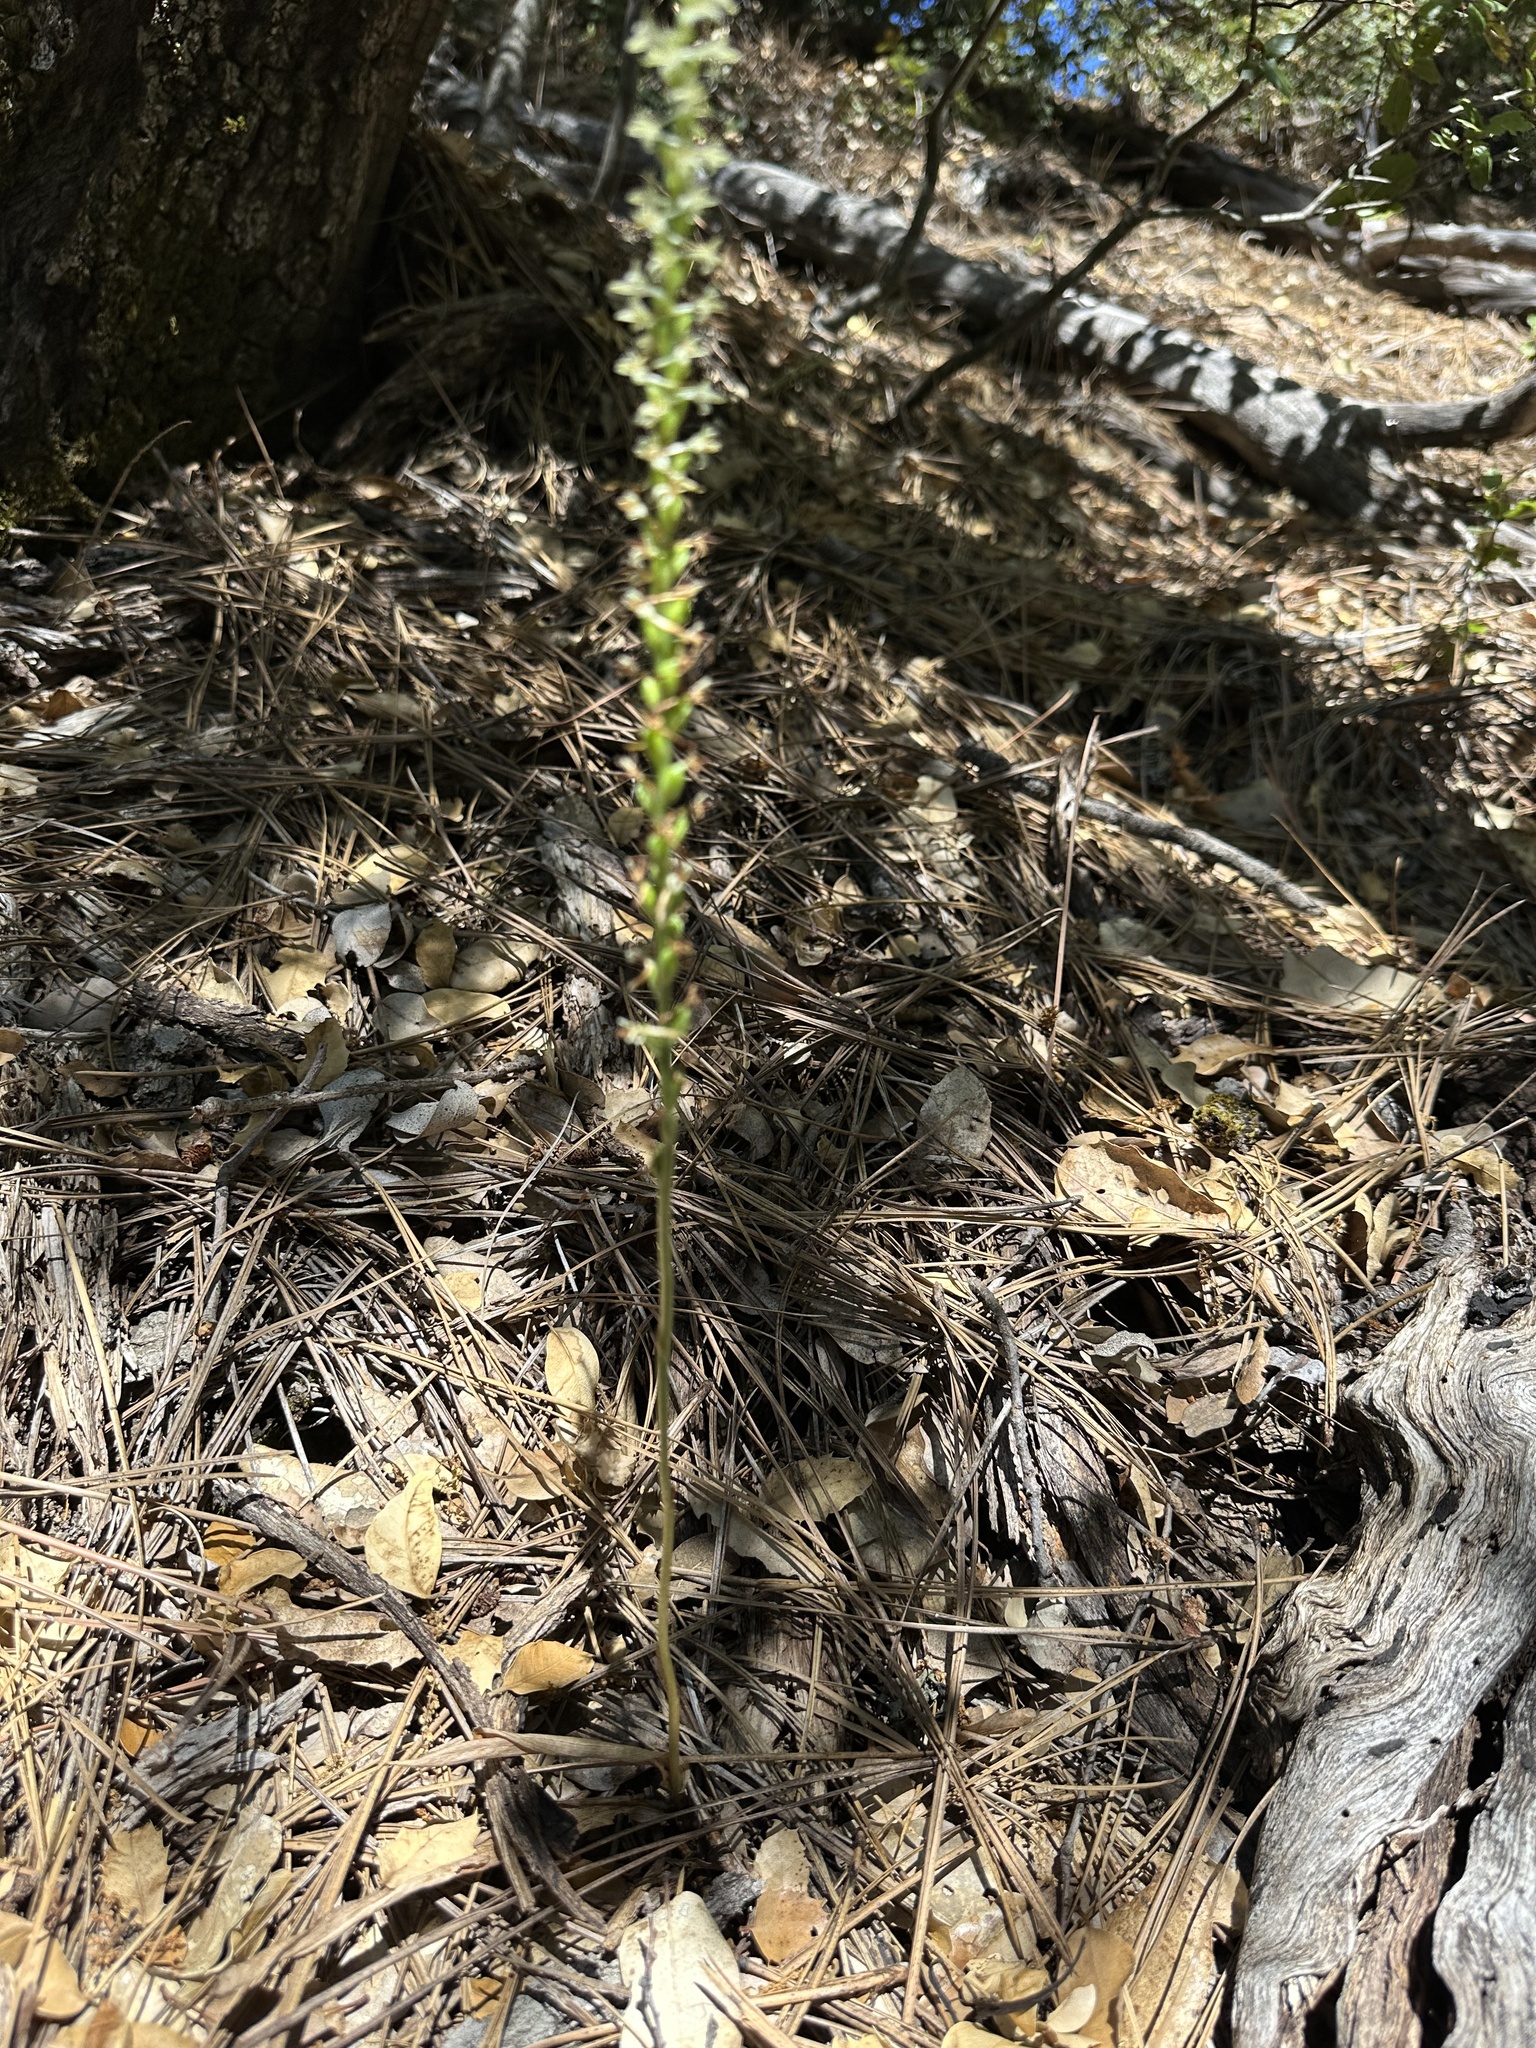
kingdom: Plantae
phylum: Tracheophyta
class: Liliopsida
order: Asparagales
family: Orchidaceae
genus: Platanthera
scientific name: Platanthera transversa
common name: Royal rein orchid
